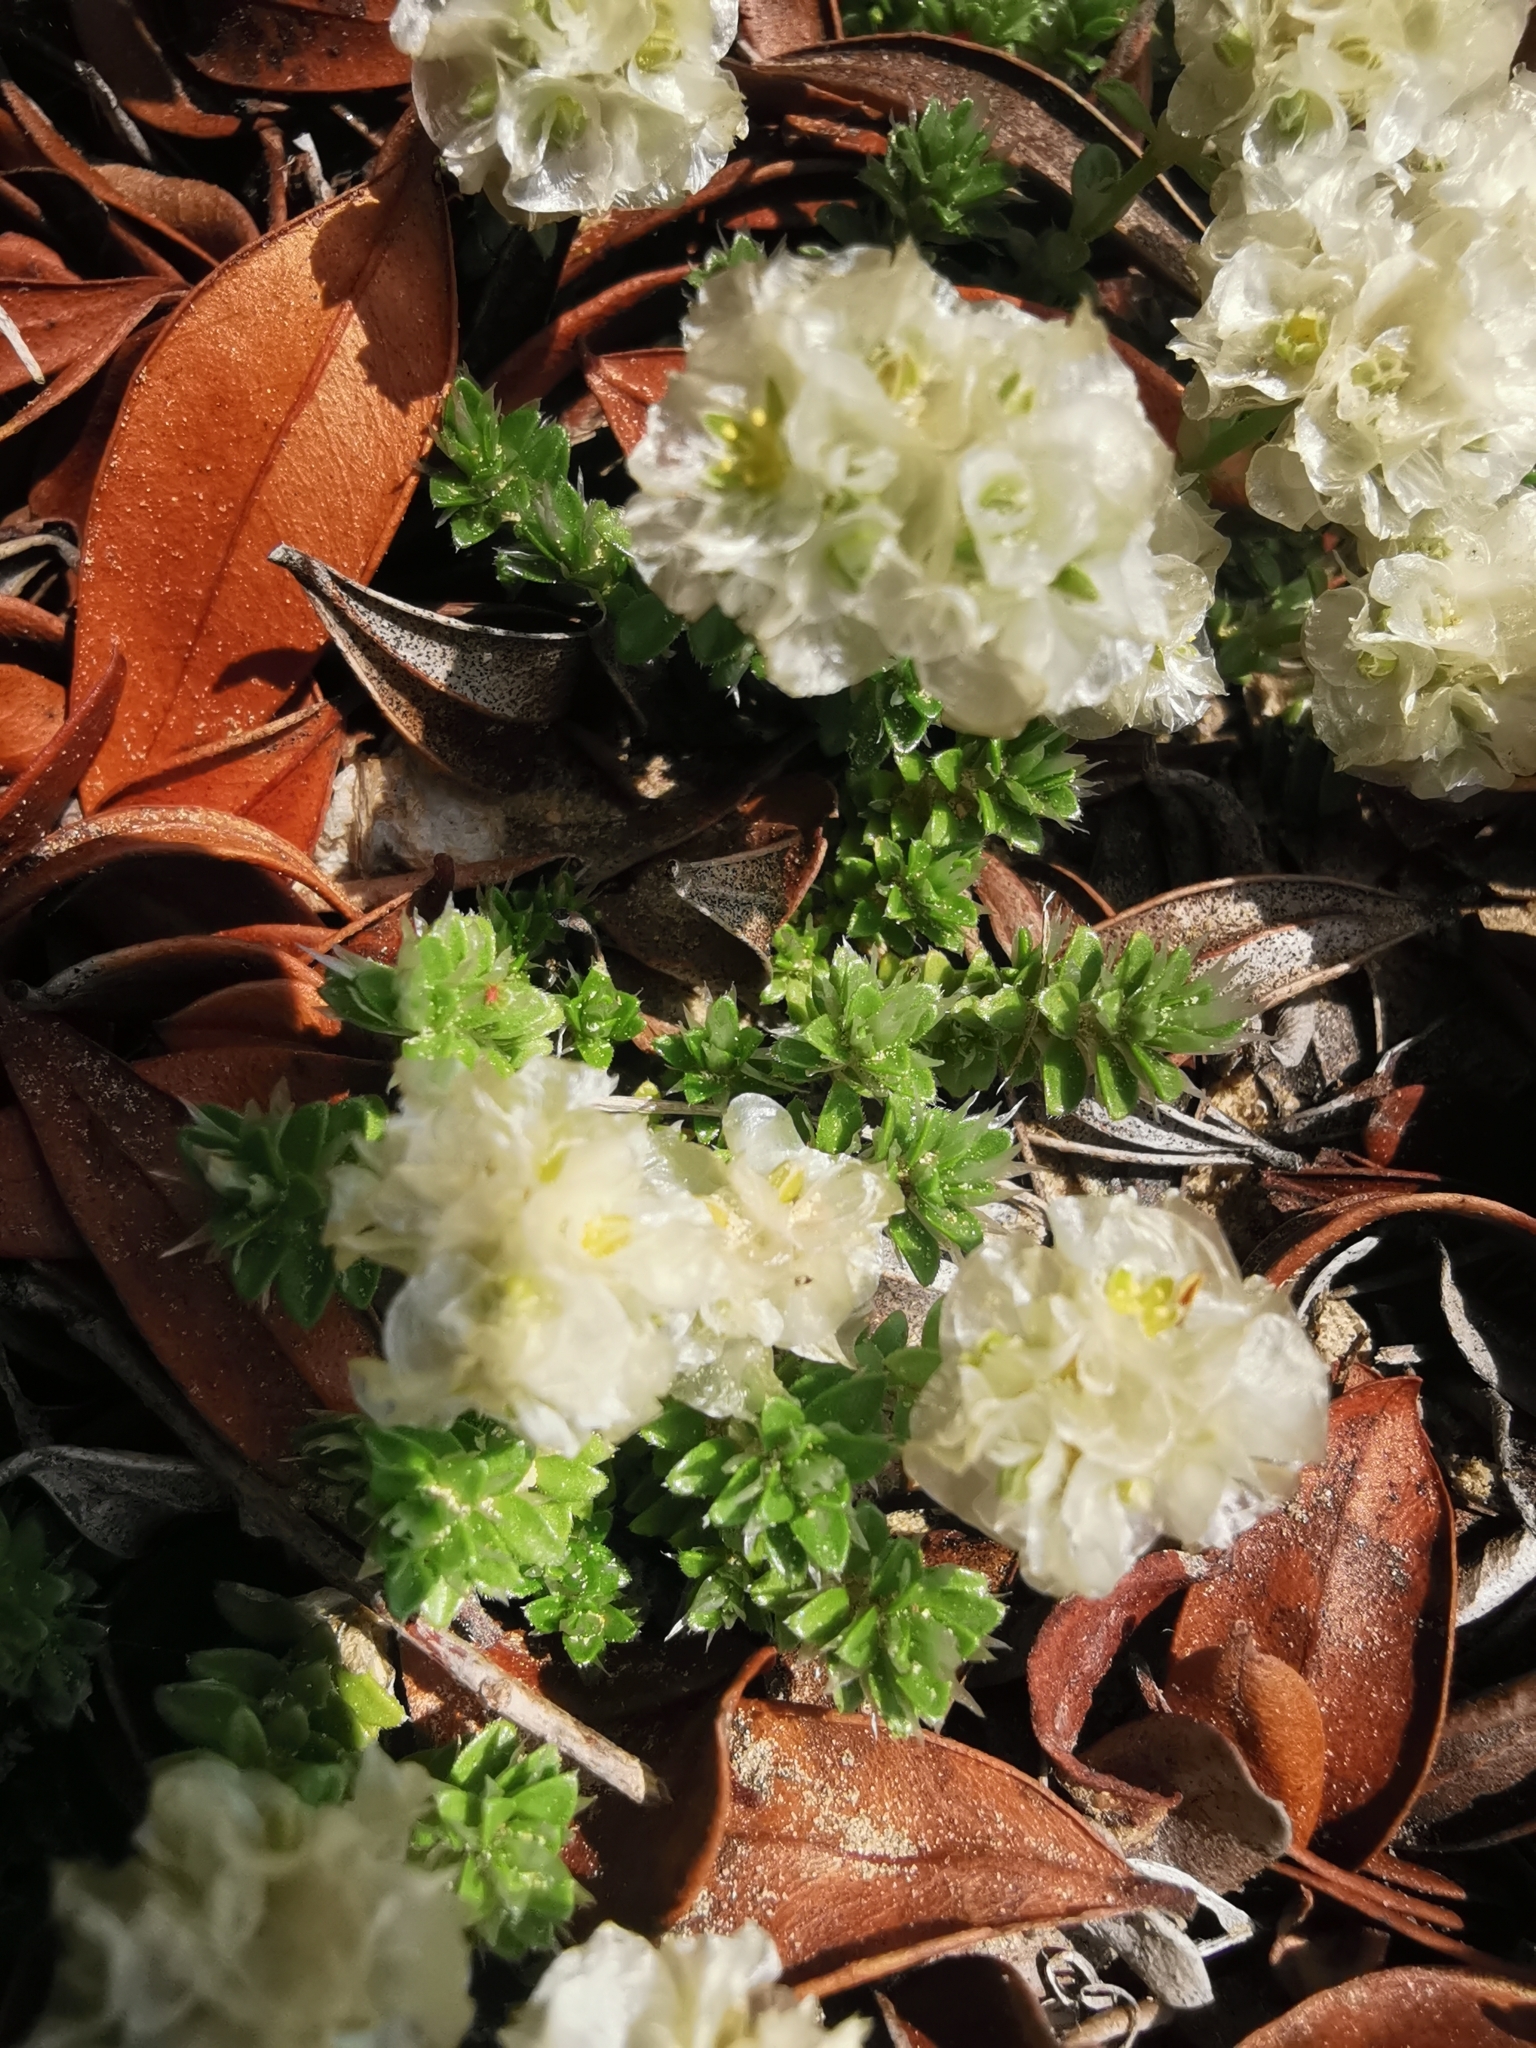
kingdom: Plantae
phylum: Tracheophyta
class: Magnoliopsida
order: Caryophyllales
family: Caryophyllaceae
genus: Paronychia
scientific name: Paronychia kapela
